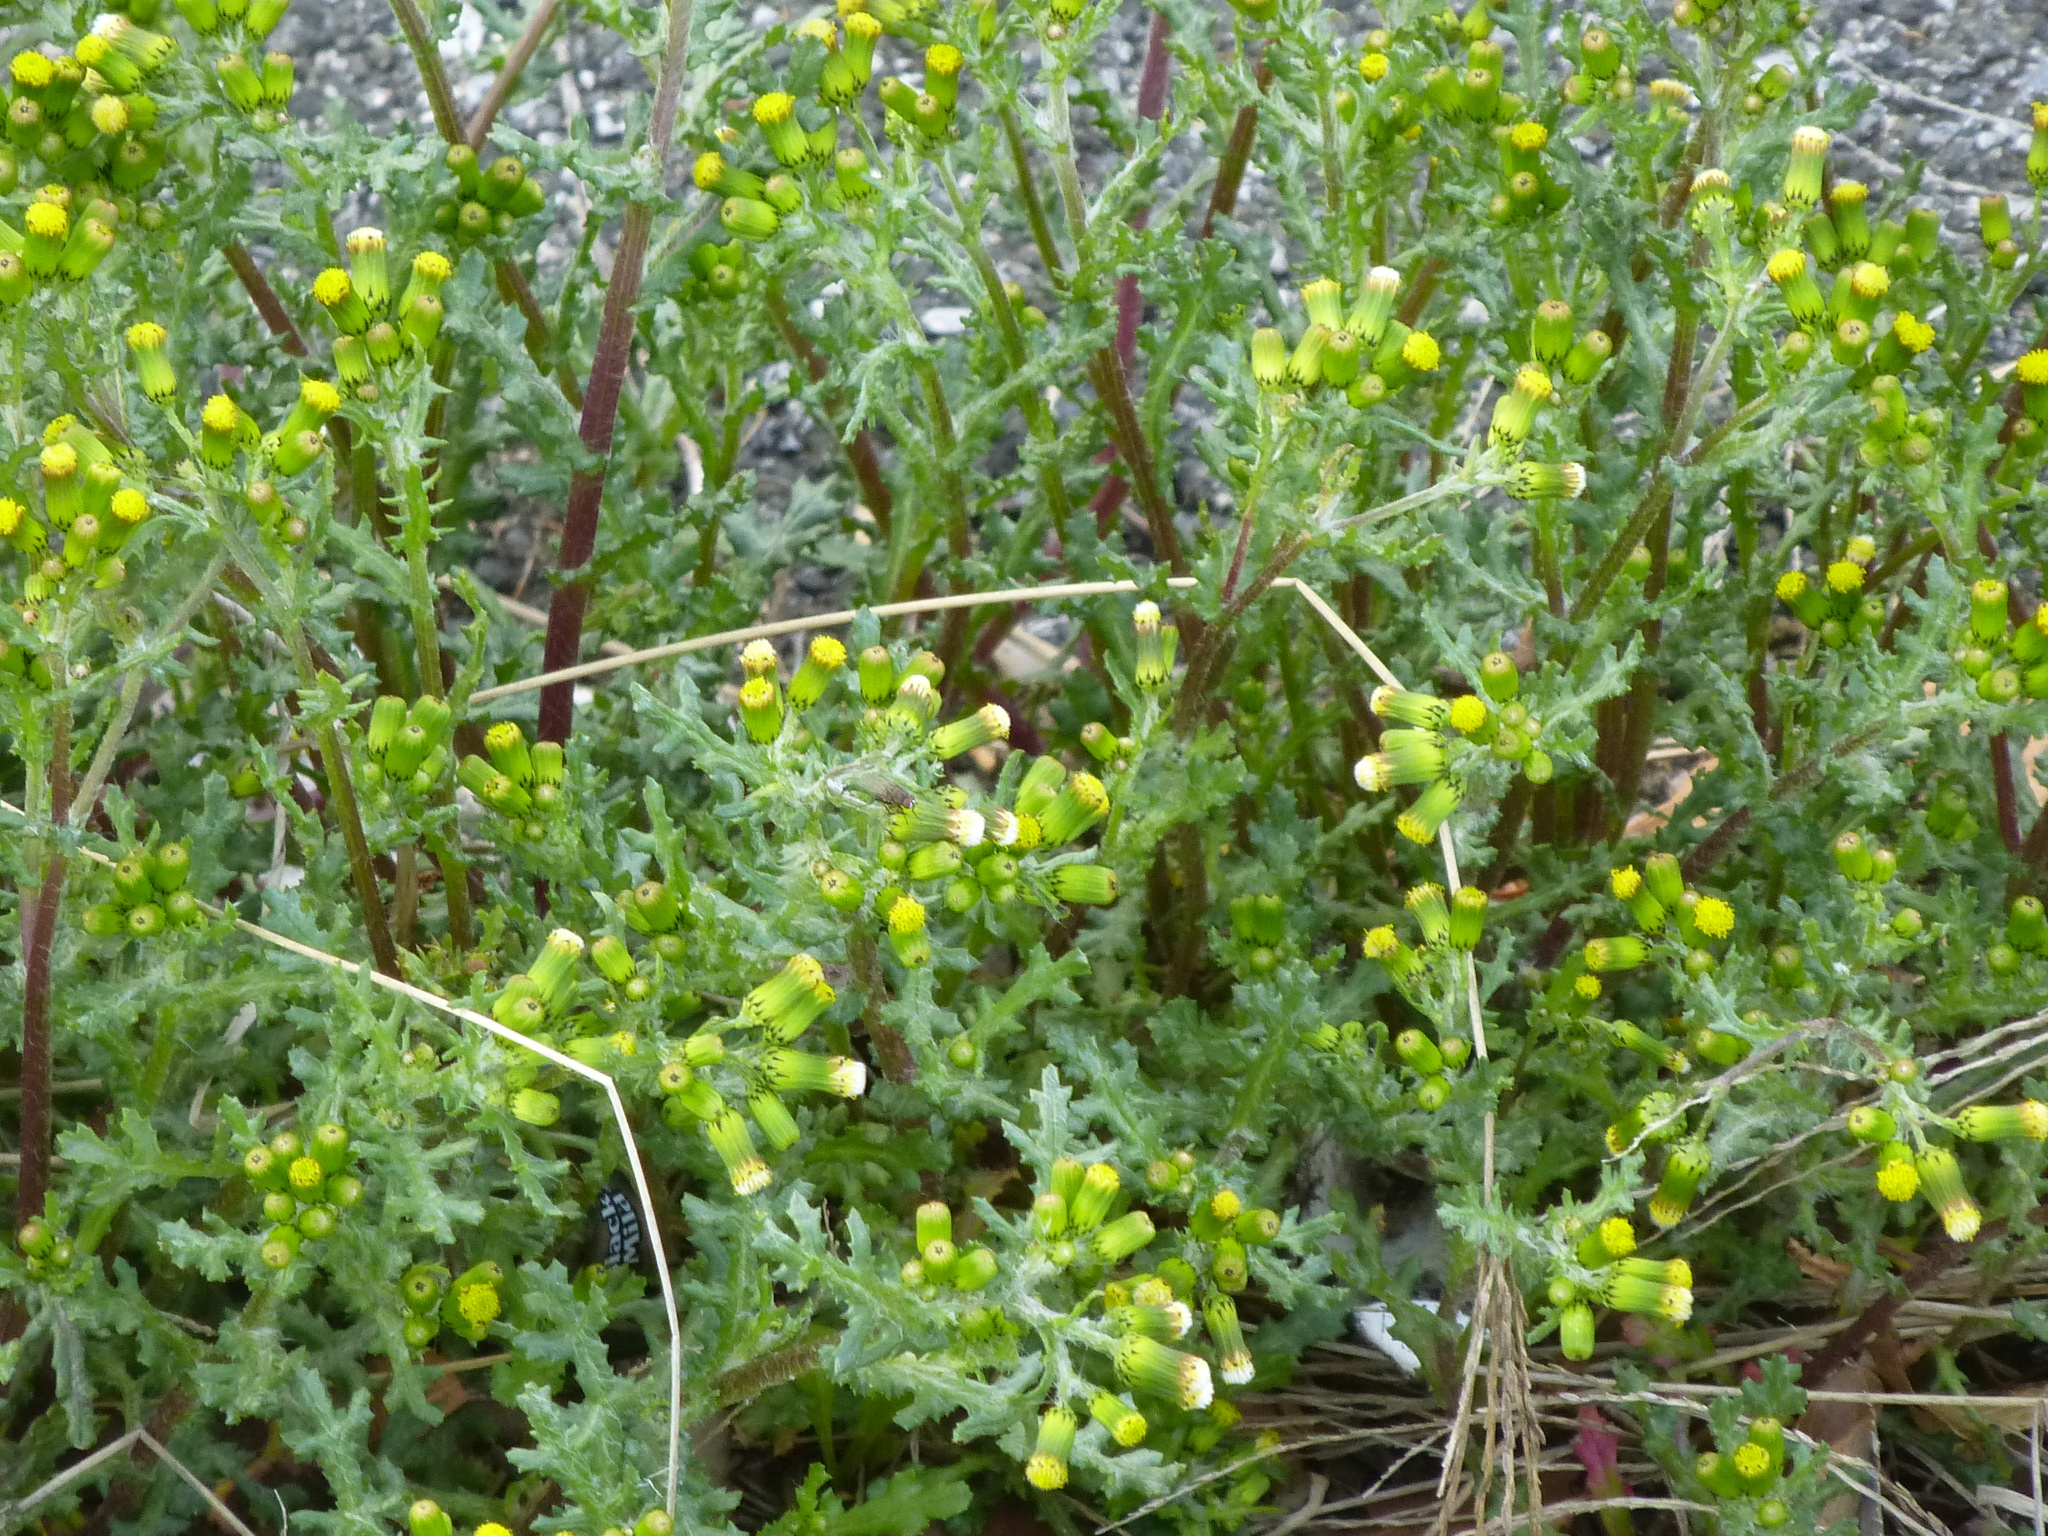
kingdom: Plantae
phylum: Tracheophyta
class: Magnoliopsida
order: Asterales
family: Asteraceae
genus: Senecio
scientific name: Senecio vulgaris
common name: Old-man-in-the-spring
